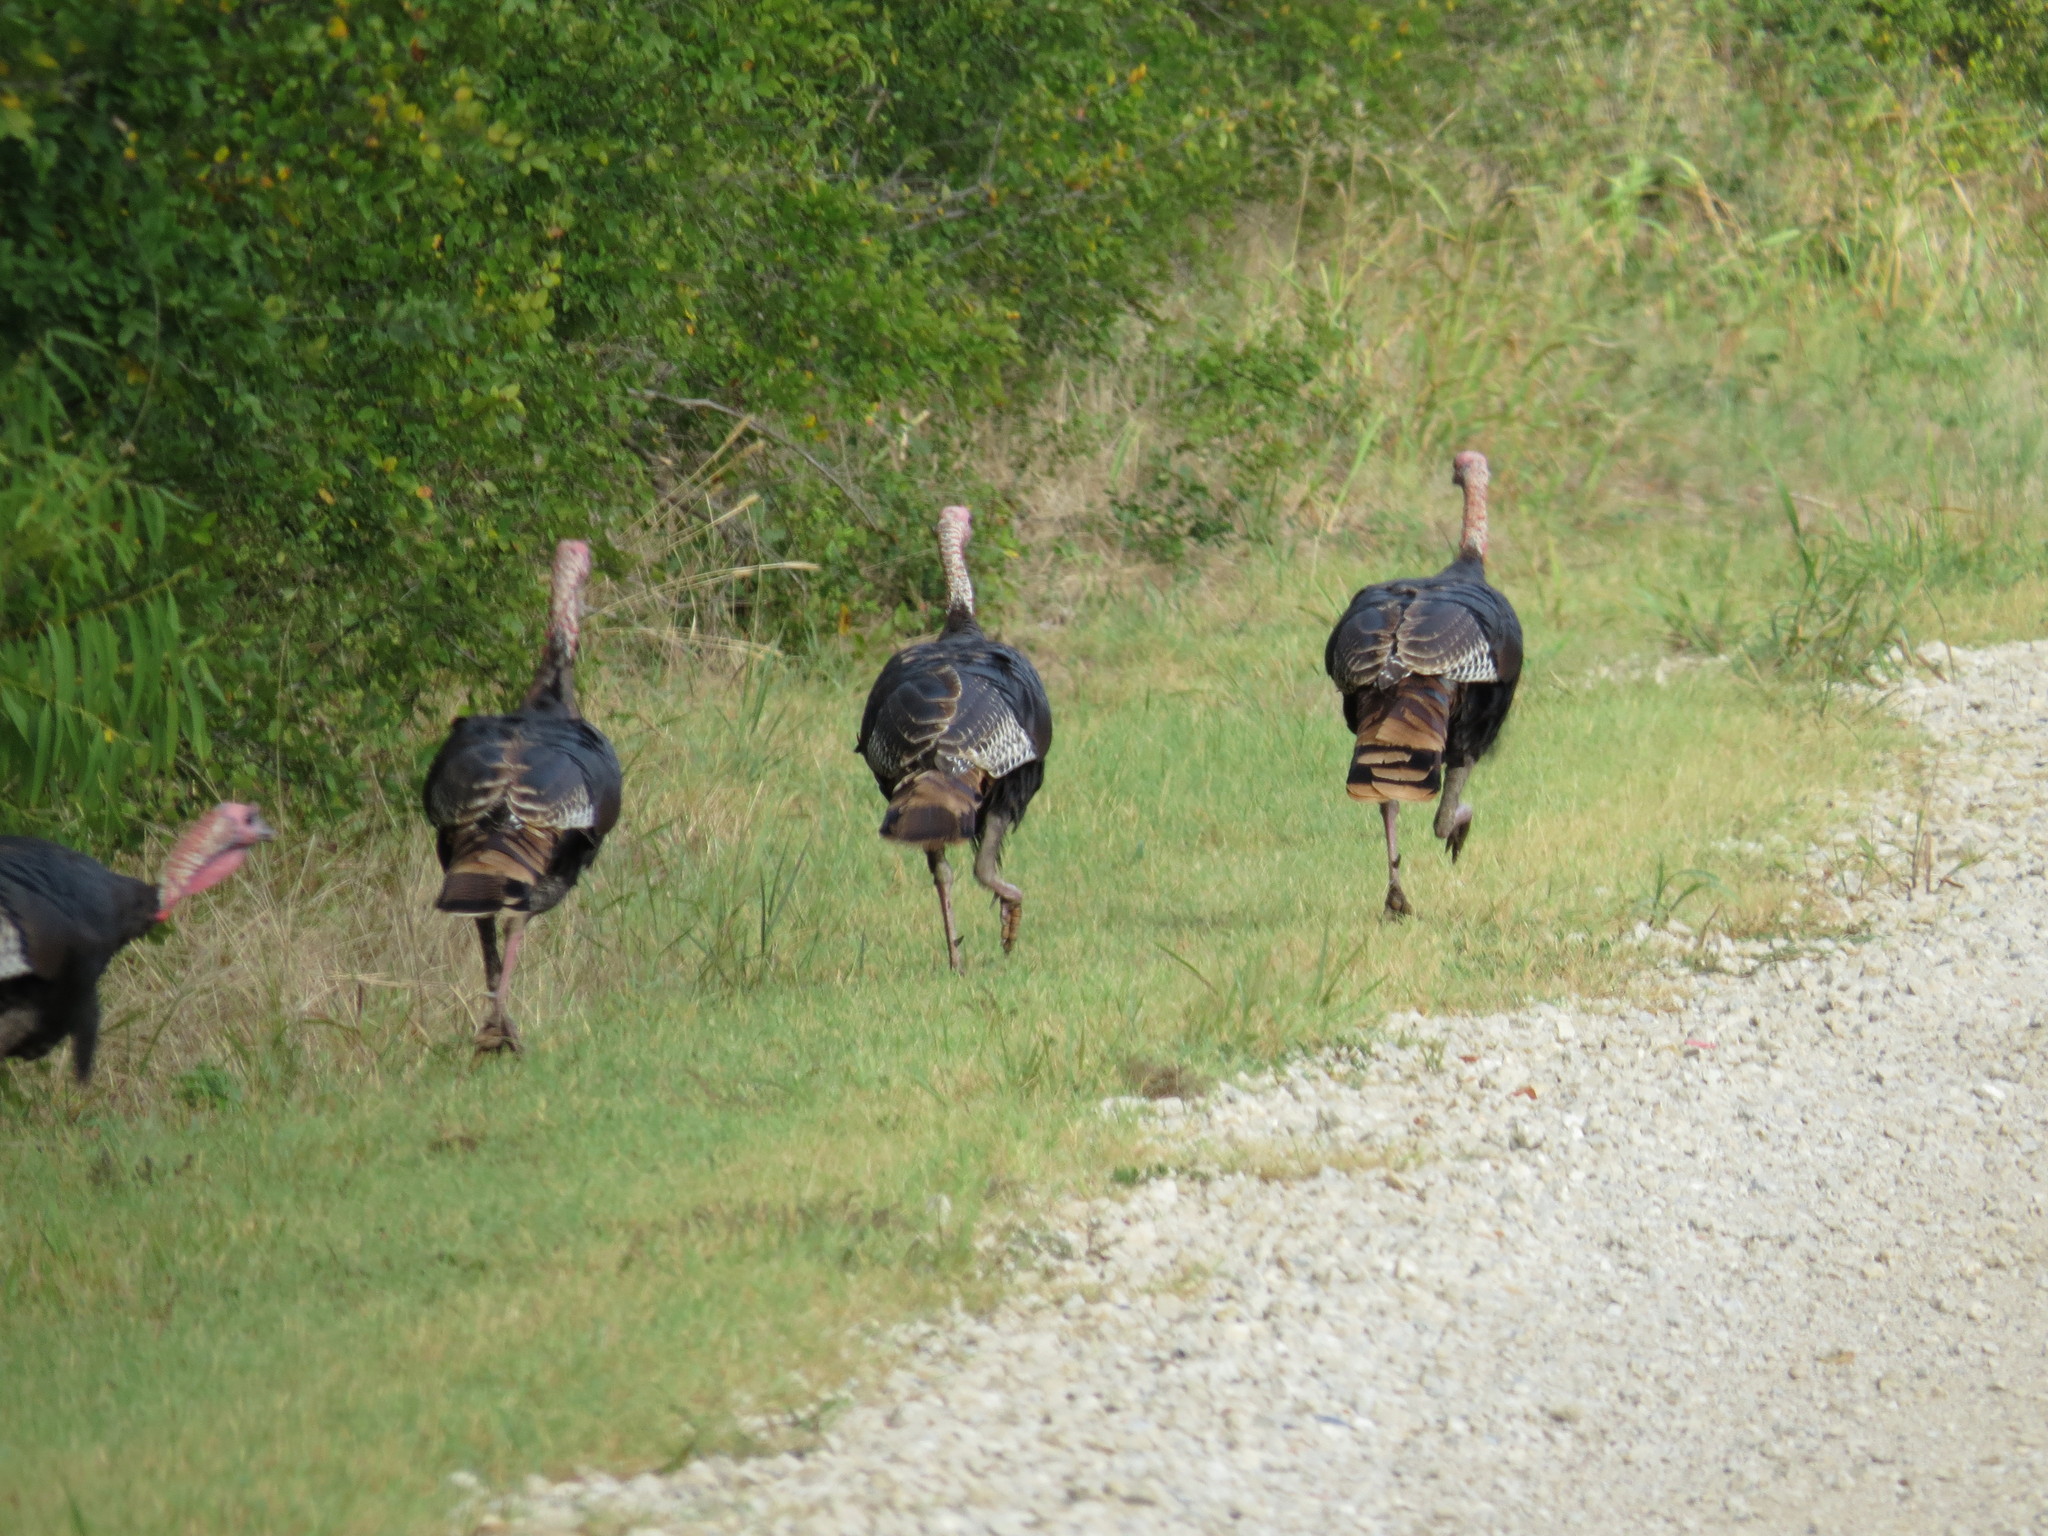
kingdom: Animalia
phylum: Chordata
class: Aves
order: Galliformes
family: Phasianidae
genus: Meleagris
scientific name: Meleagris gallopavo
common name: Wild turkey
